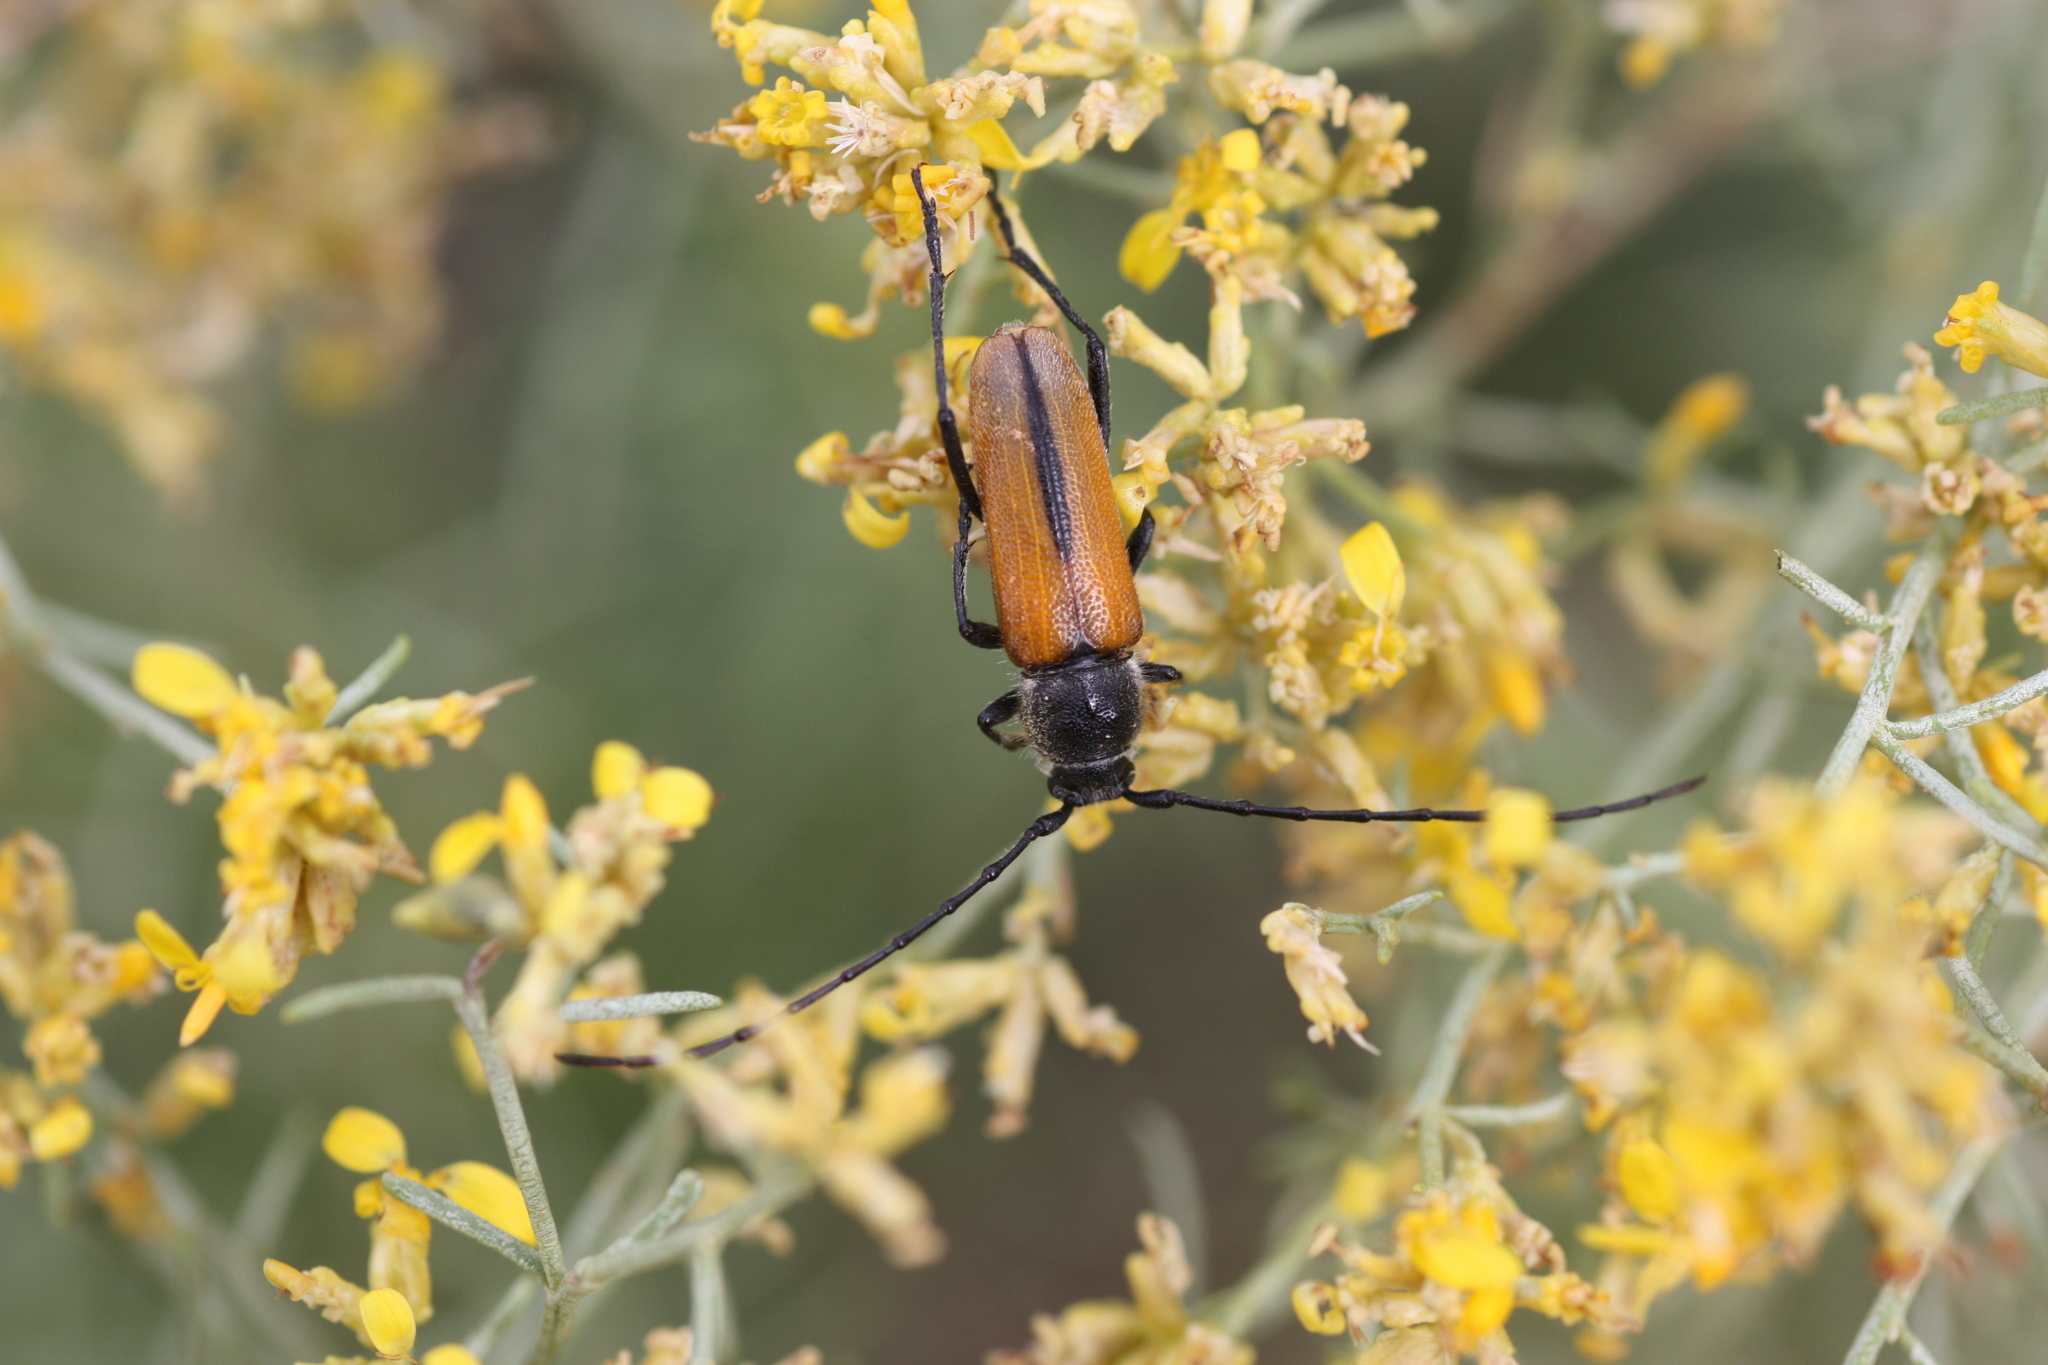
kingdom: Animalia
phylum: Arthropoda
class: Insecta
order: Coleoptera
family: Cerambycidae
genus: Crossidius
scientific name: Crossidius pulchellus
